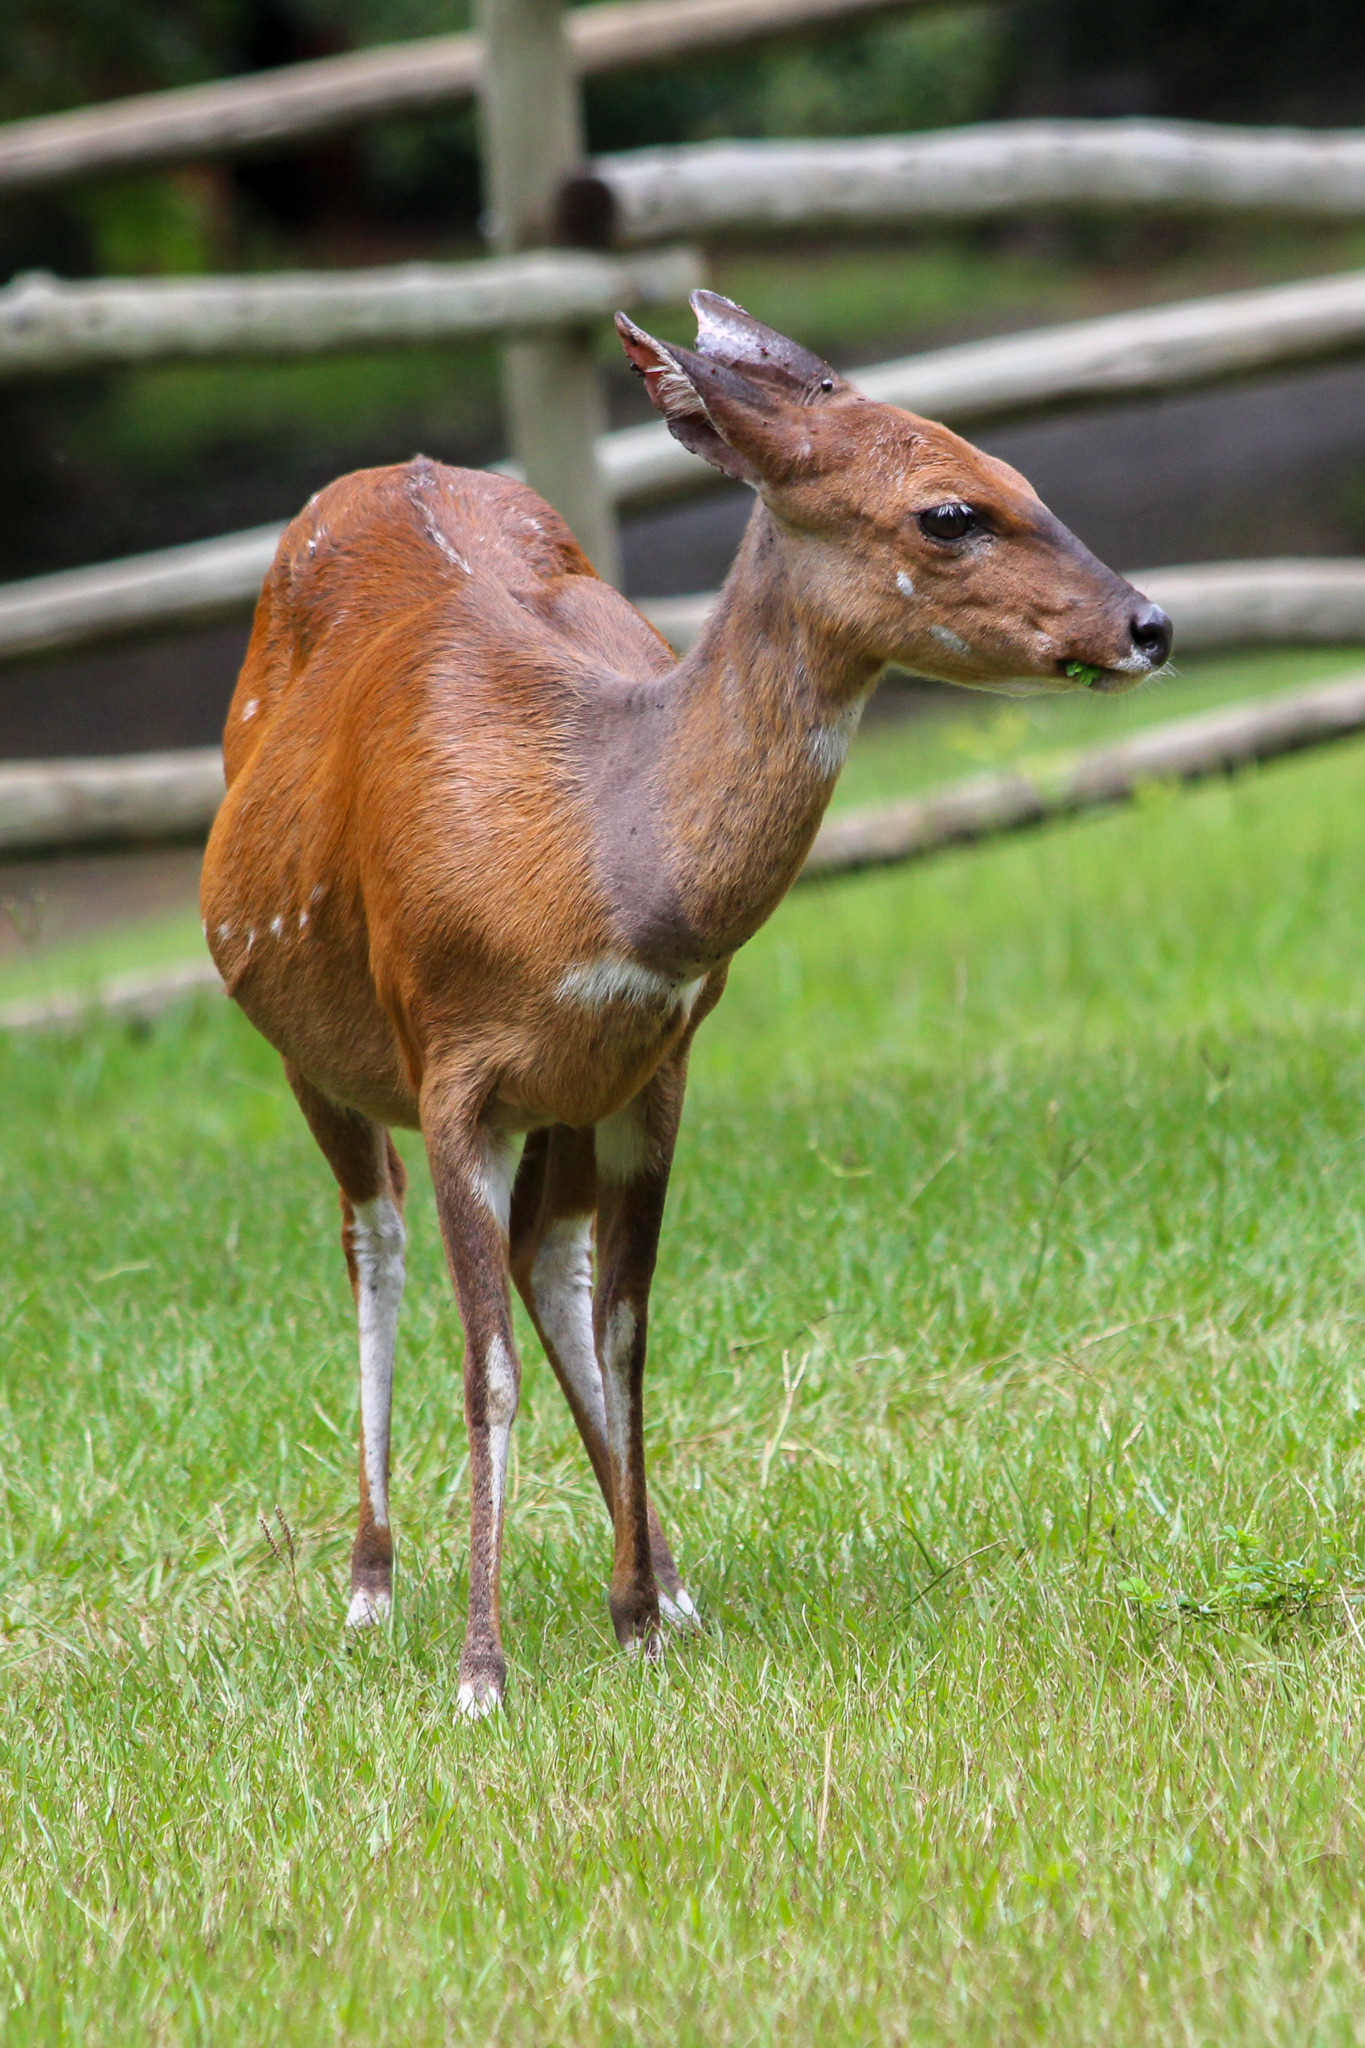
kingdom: Animalia
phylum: Chordata
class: Mammalia
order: Artiodactyla
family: Bovidae
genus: Tragelaphus
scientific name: Tragelaphus scriptus
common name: Bushbuck
